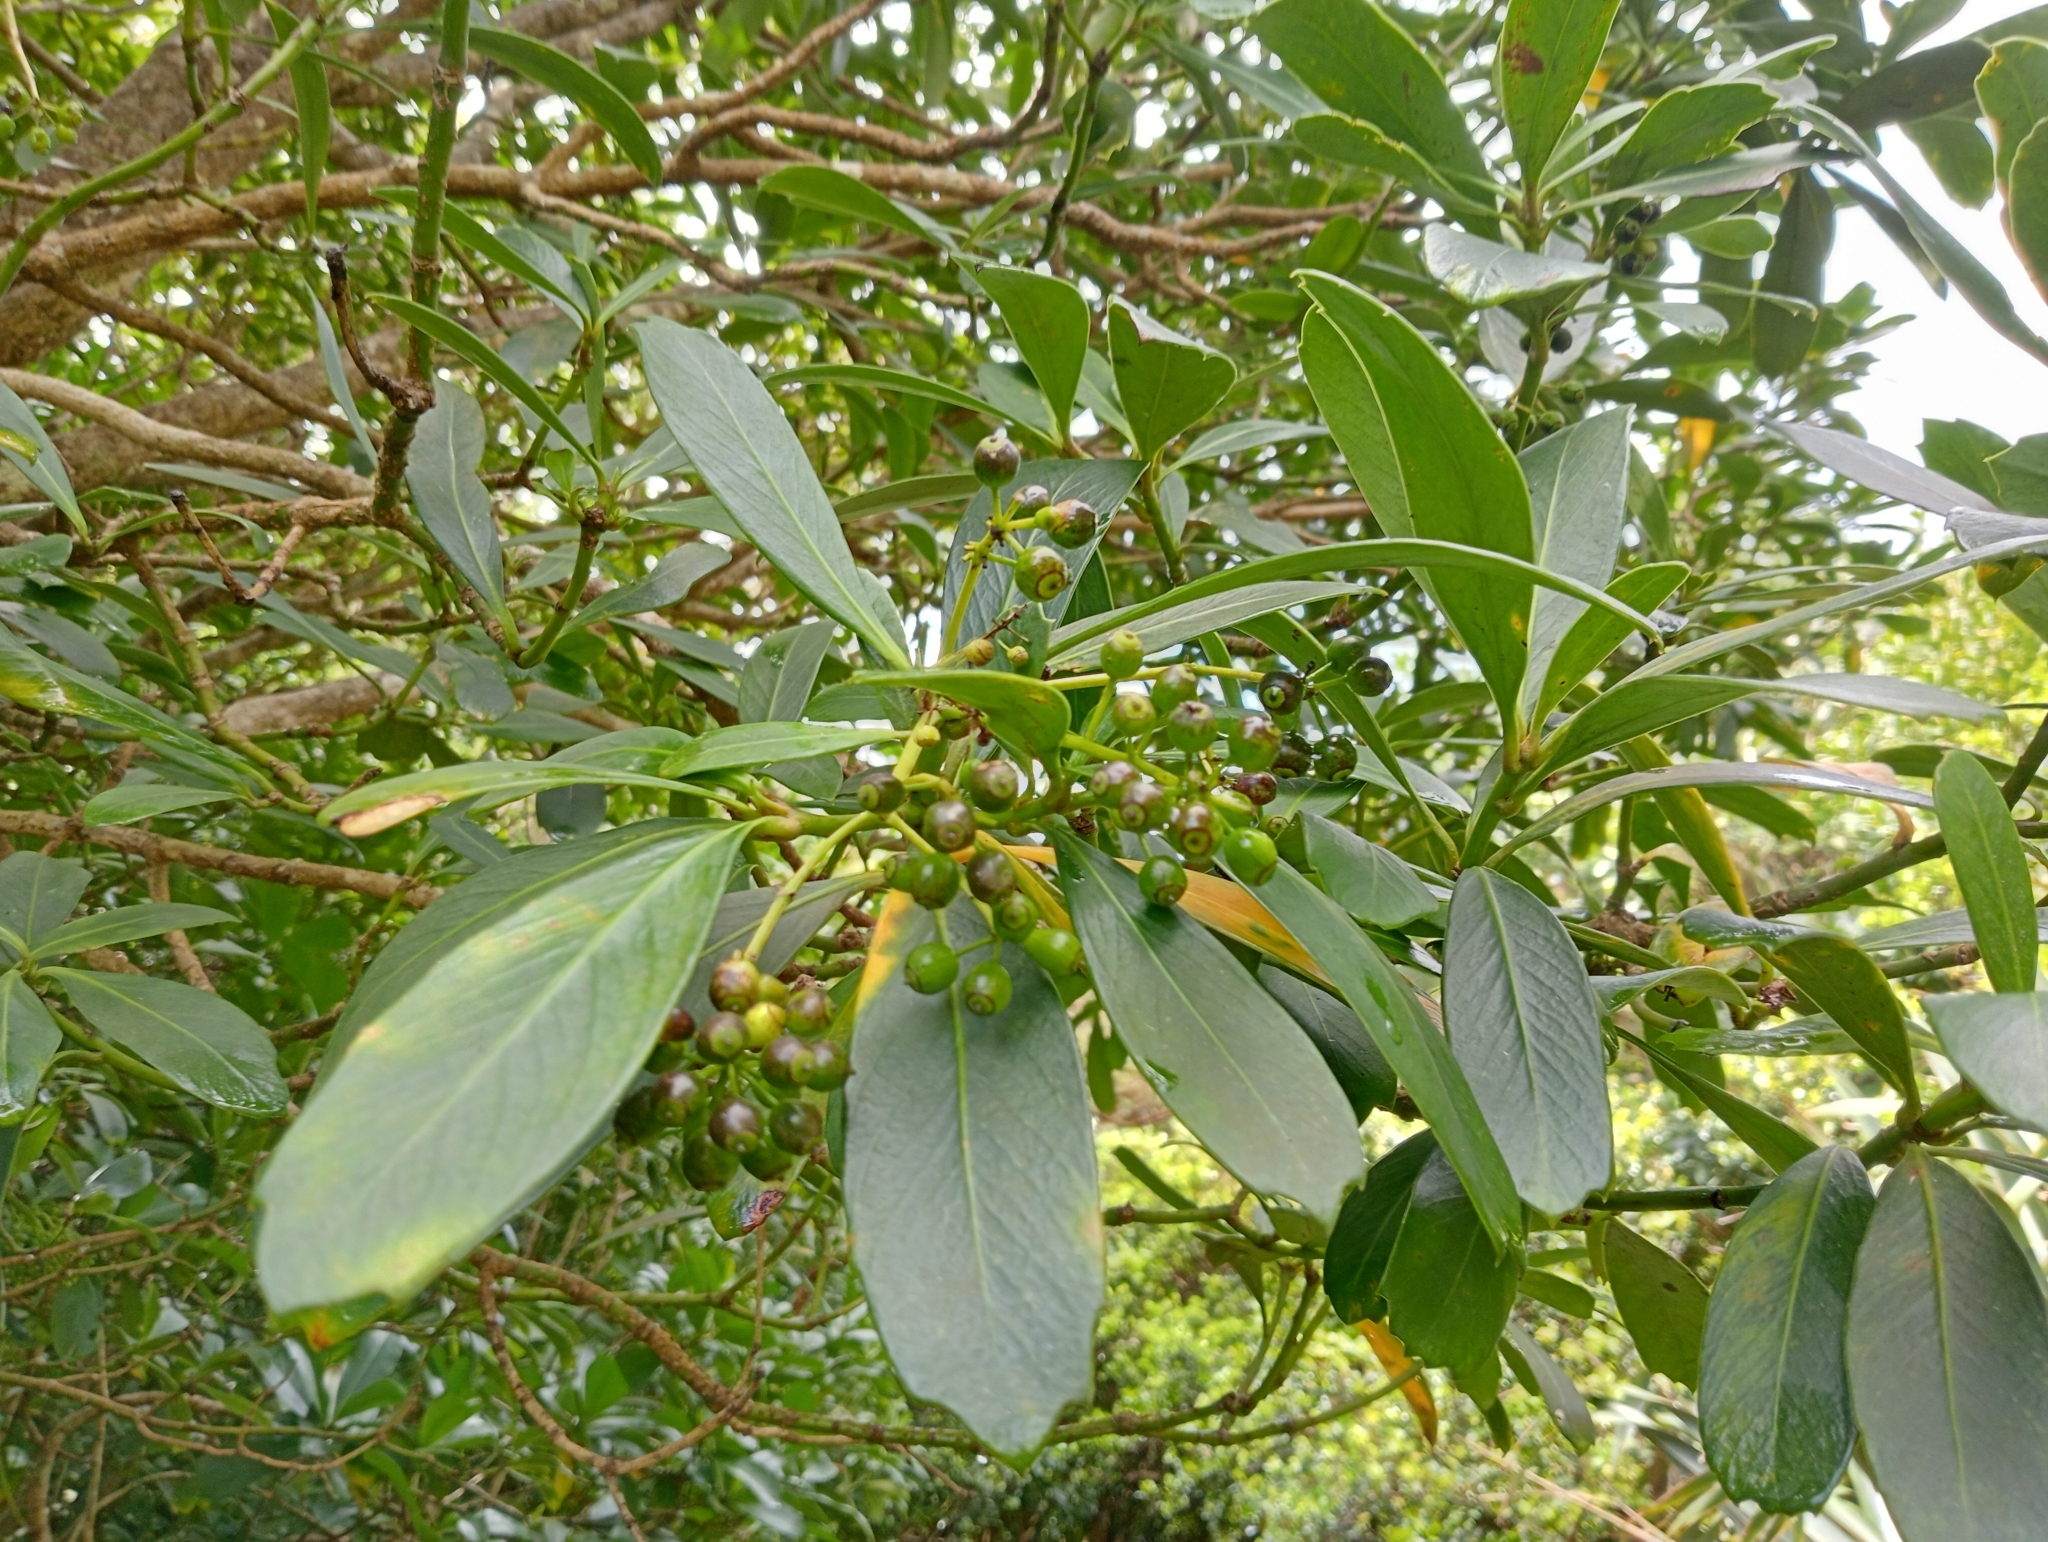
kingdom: Plantae
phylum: Tracheophyta
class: Magnoliopsida
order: Apiales
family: Araliaceae
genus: Pseudopanax
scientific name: Pseudopanax chathamicus
